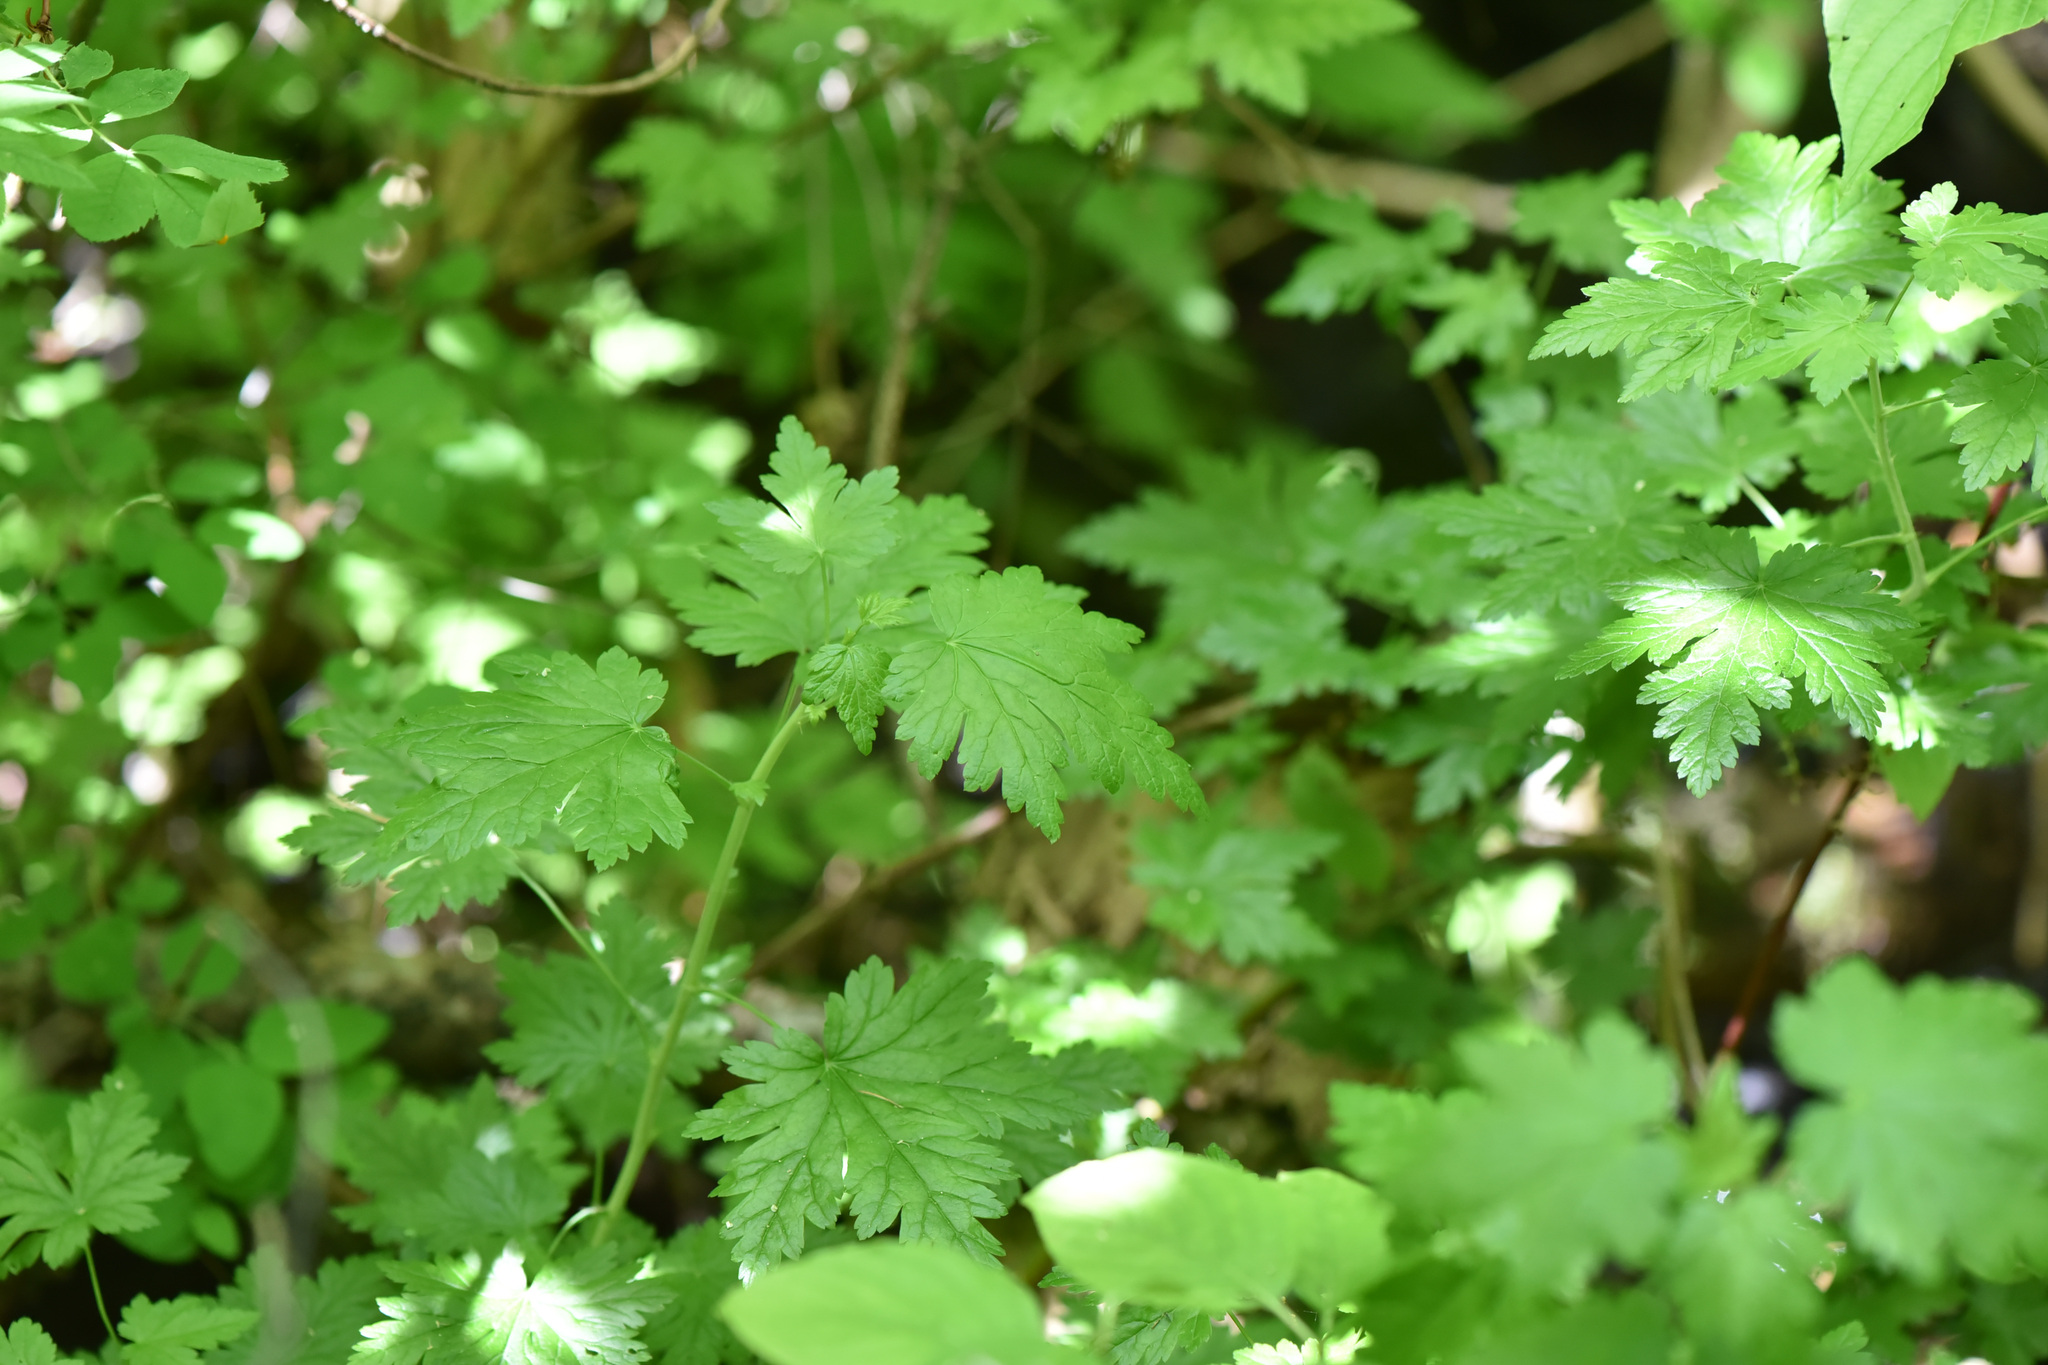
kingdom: Plantae
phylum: Tracheophyta
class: Magnoliopsida
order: Saxifragales
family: Grossulariaceae
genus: Ribes
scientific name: Ribes lacustre
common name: Black gooseberry
